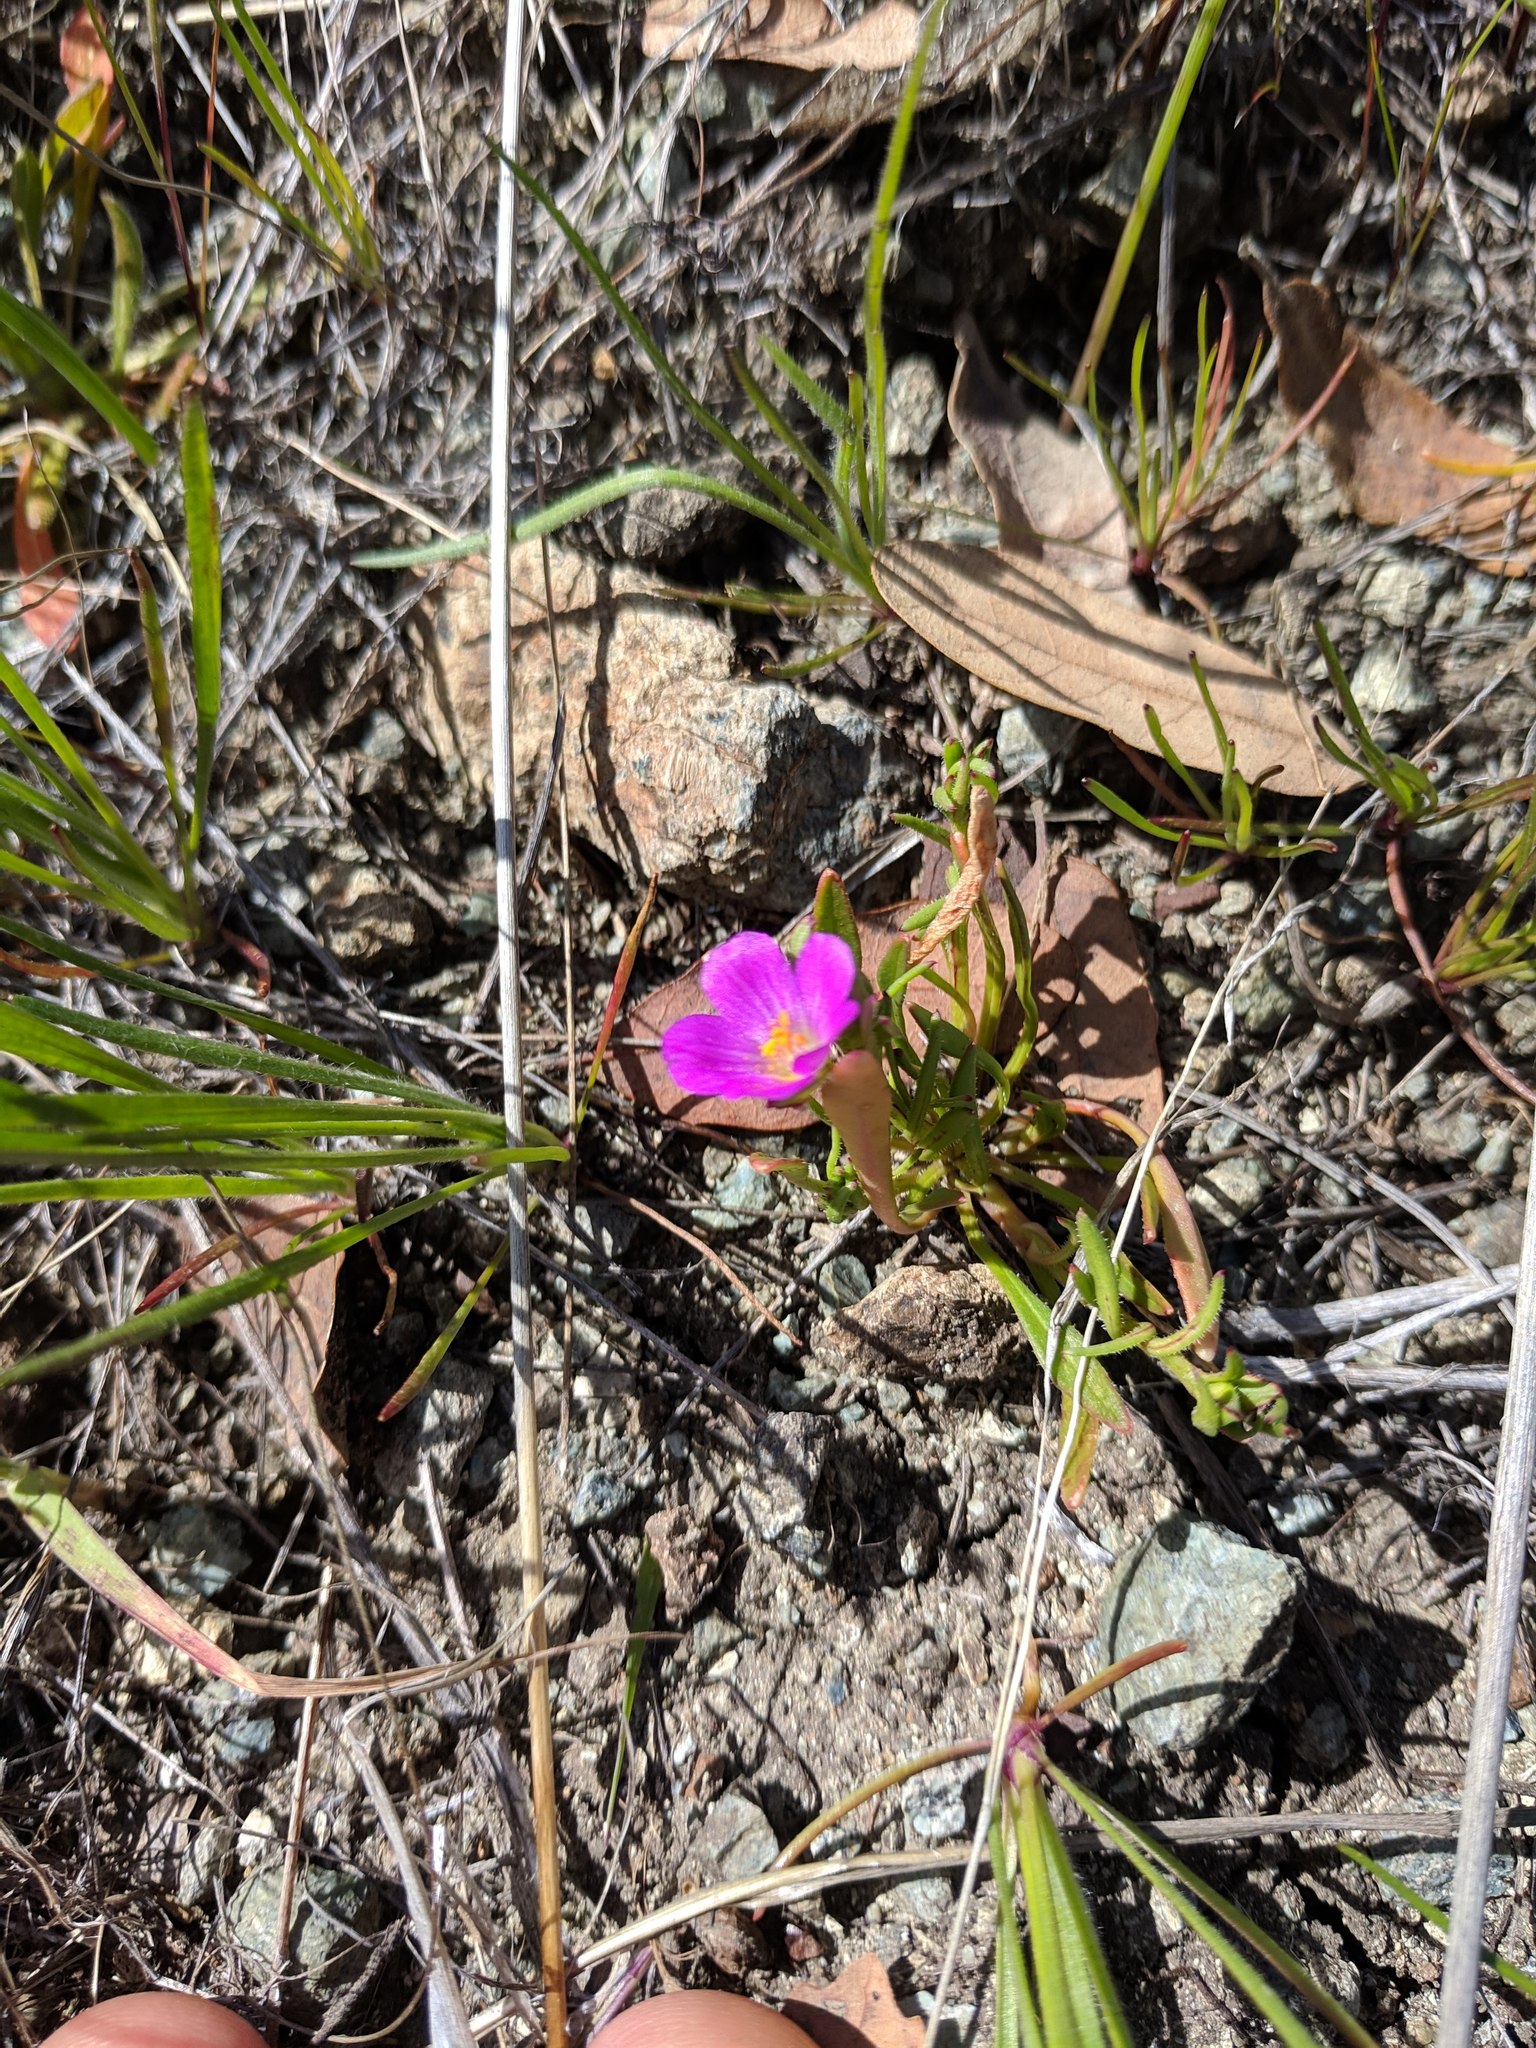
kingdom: Plantae
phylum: Tracheophyta
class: Magnoliopsida
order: Caryophyllales
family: Montiaceae
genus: Calandrinia
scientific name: Calandrinia menziesii
